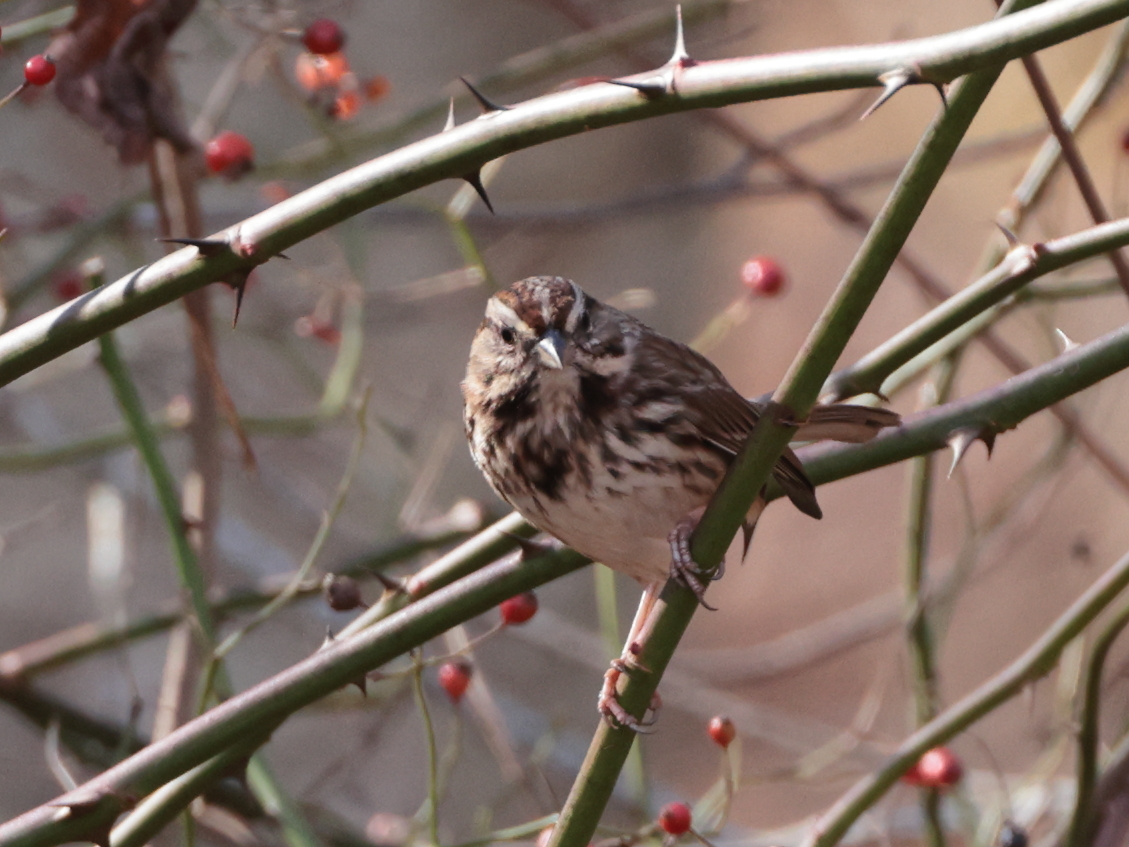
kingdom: Animalia
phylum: Chordata
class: Aves
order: Passeriformes
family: Passerellidae
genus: Melospiza
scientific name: Melospiza melodia
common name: Song sparrow
